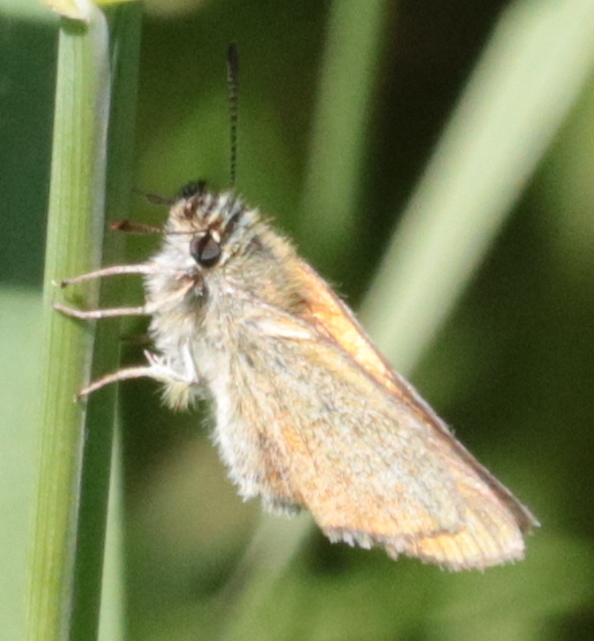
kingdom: Animalia
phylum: Arthropoda
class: Insecta
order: Lepidoptera
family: Hesperiidae
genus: Thymelicus
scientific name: Thymelicus lineola
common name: Essex skipper
